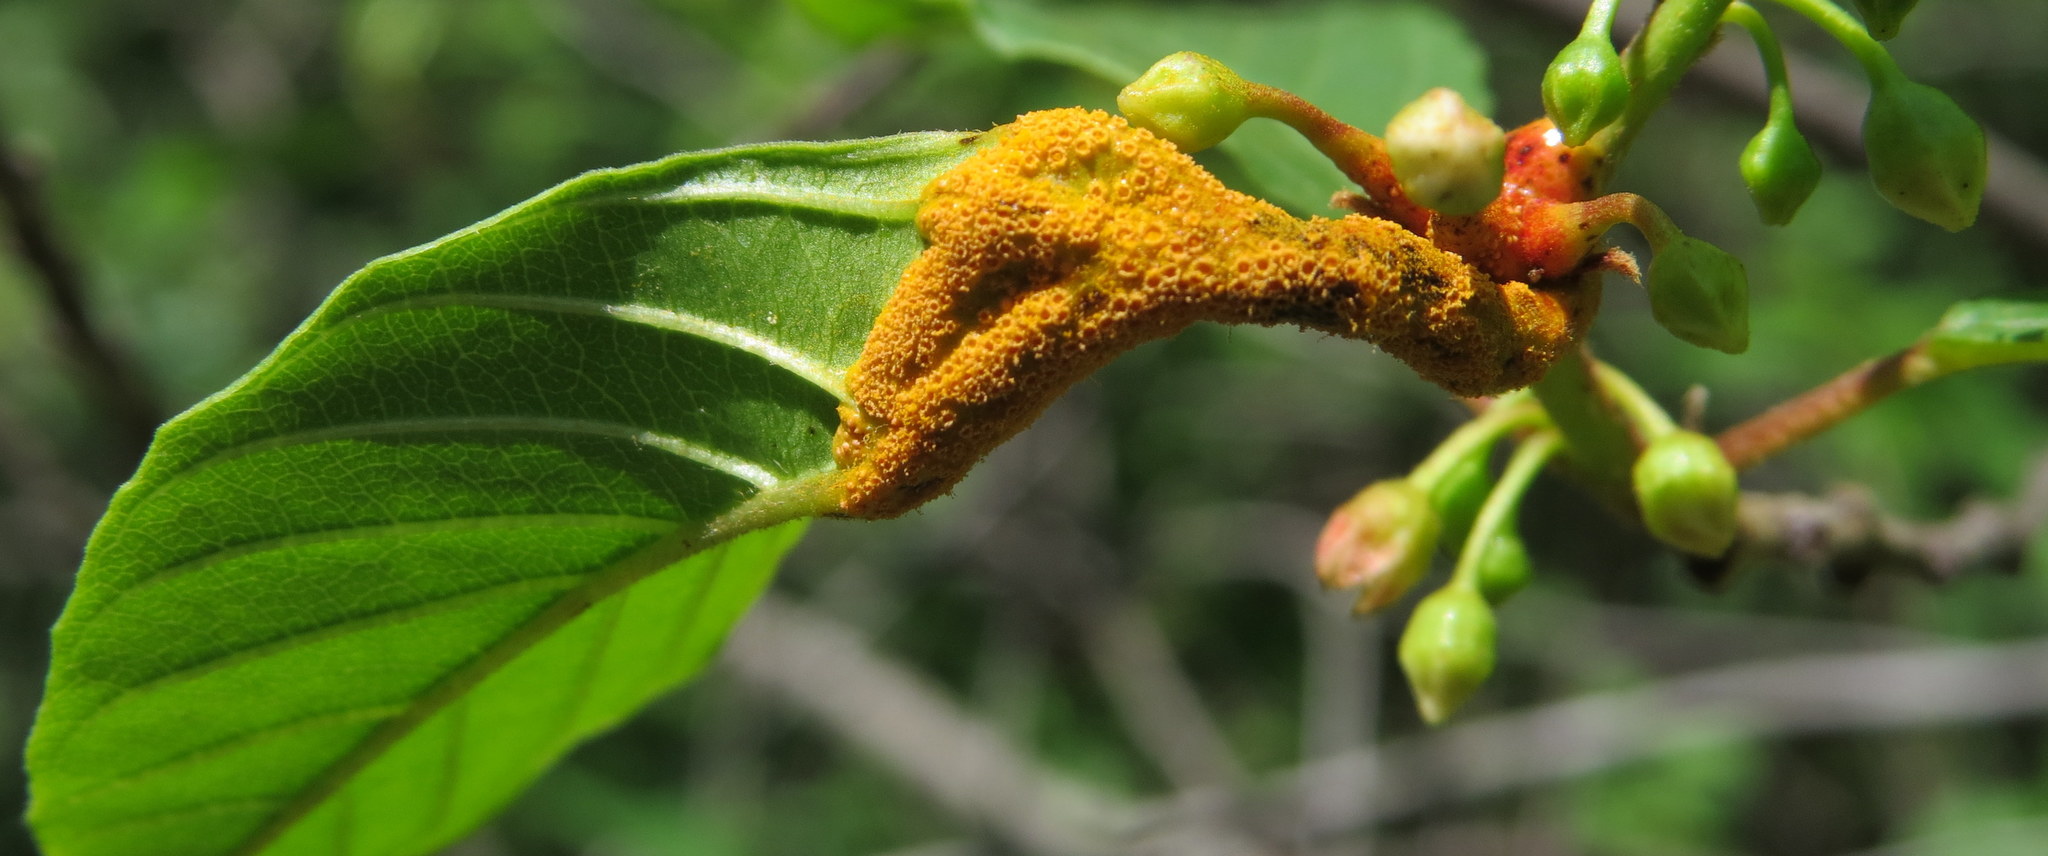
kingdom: Fungi
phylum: Basidiomycota
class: Pucciniomycetes
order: Pucciniales
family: Pucciniaceae
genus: Puccinia
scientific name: Puccinia coronata
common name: Crown rust
